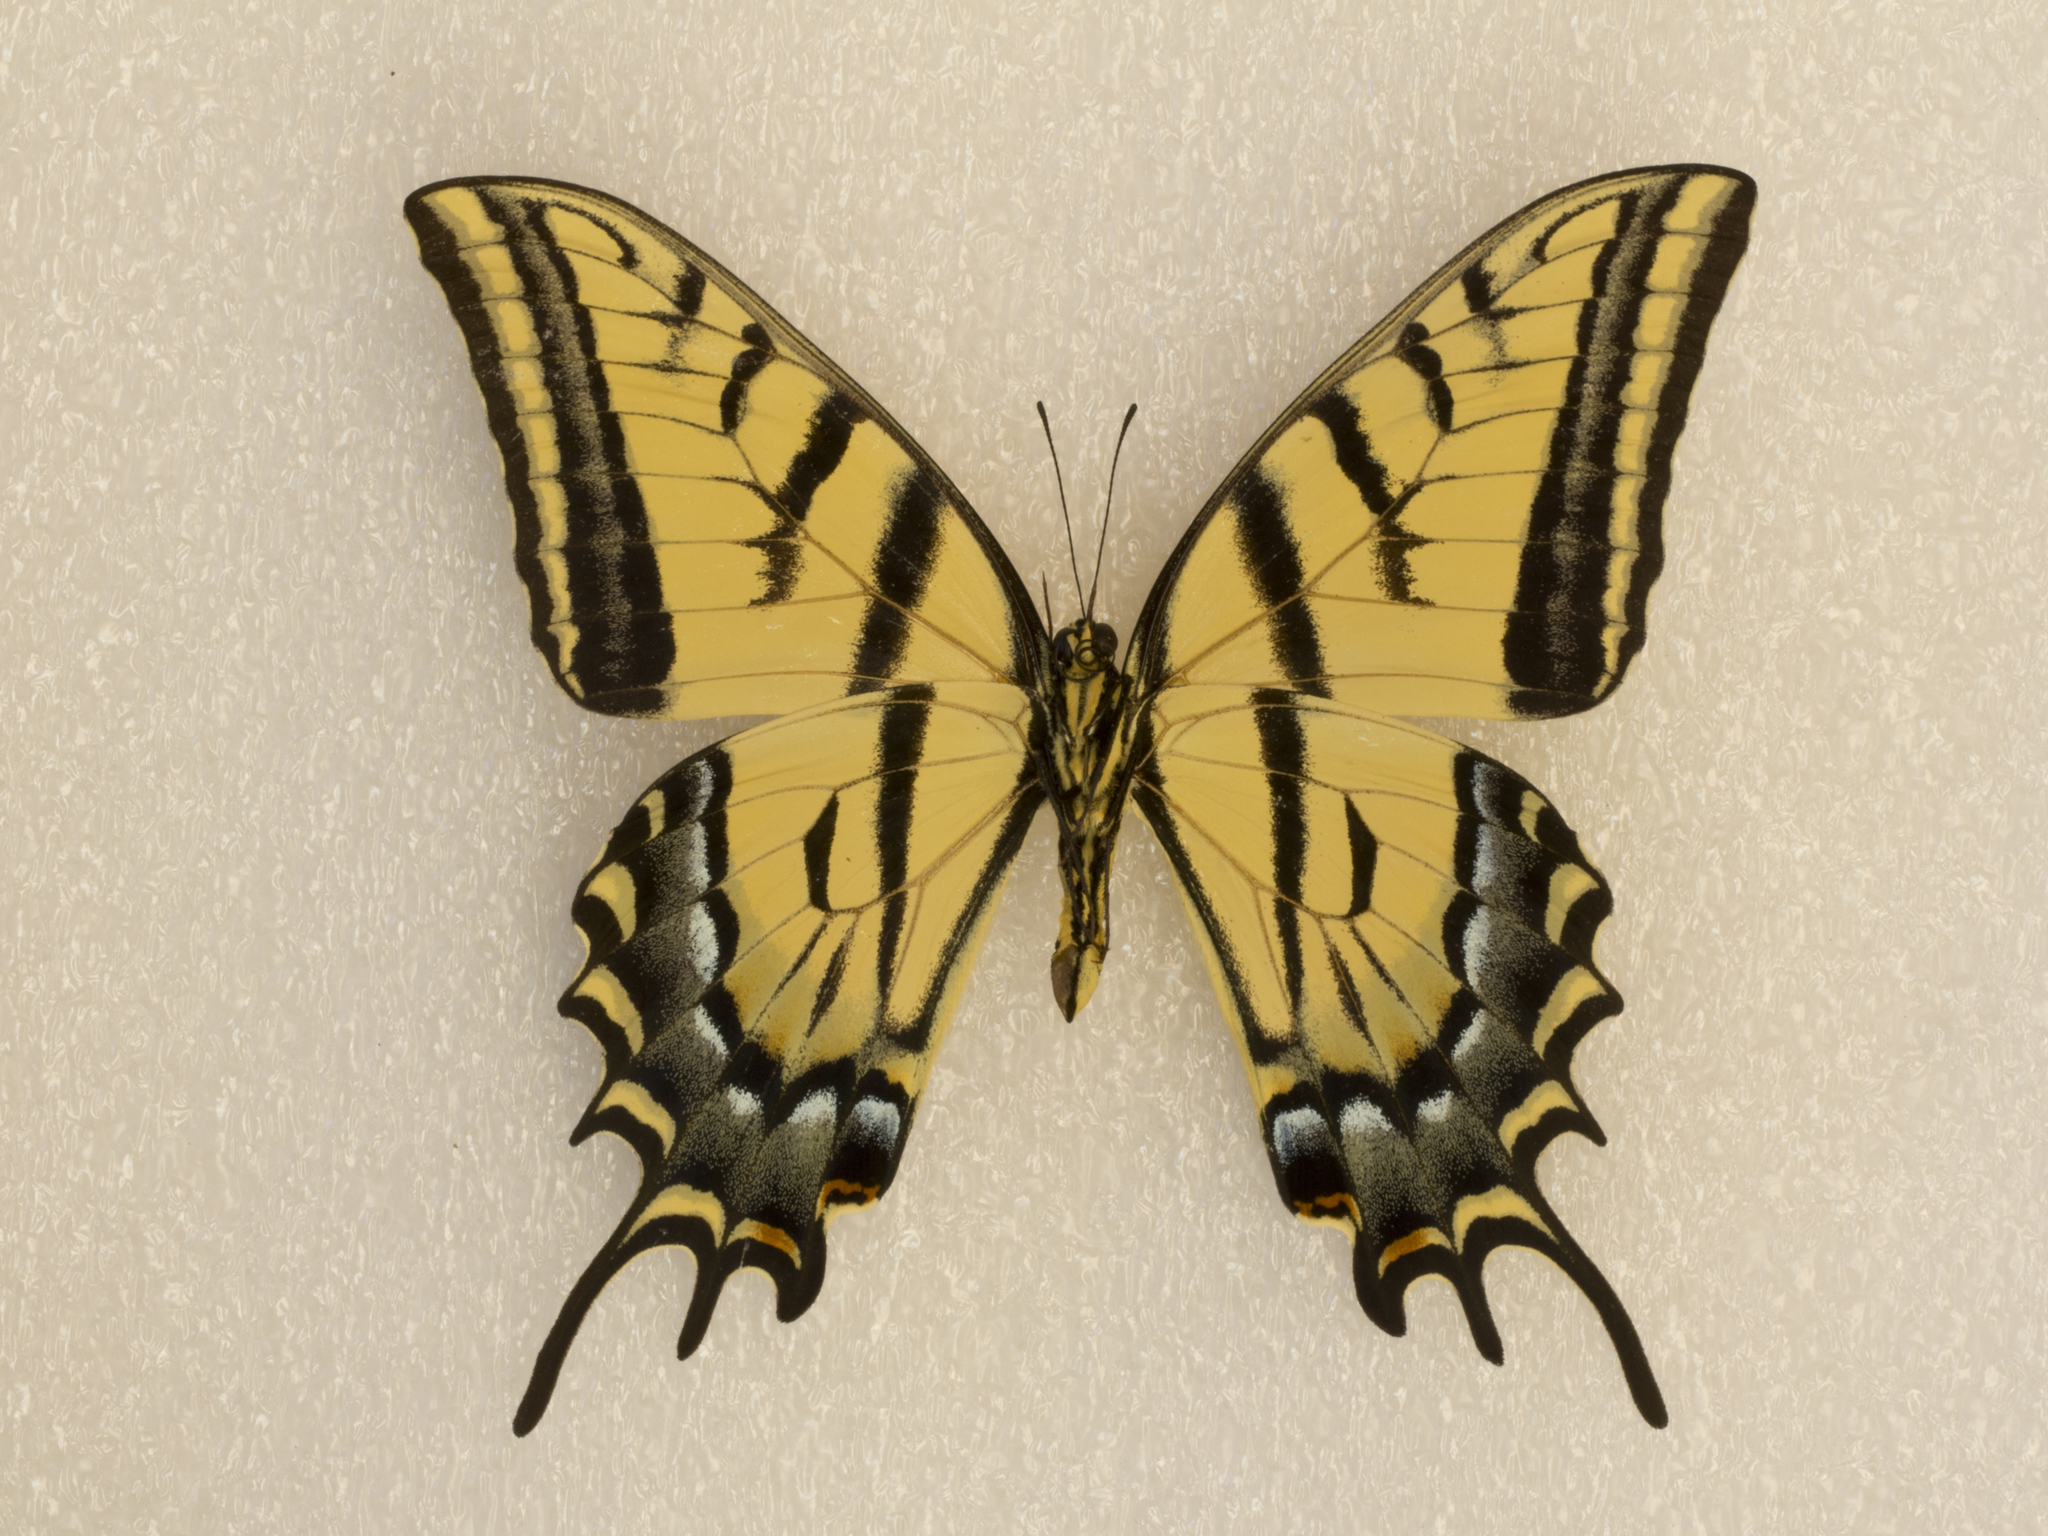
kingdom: Animalia
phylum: Arthropoda
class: Insecta
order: Lepidoptera
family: Papilionidae
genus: Papilio
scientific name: Papilio multicaudata
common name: Two-tailed tiger swallowtail
